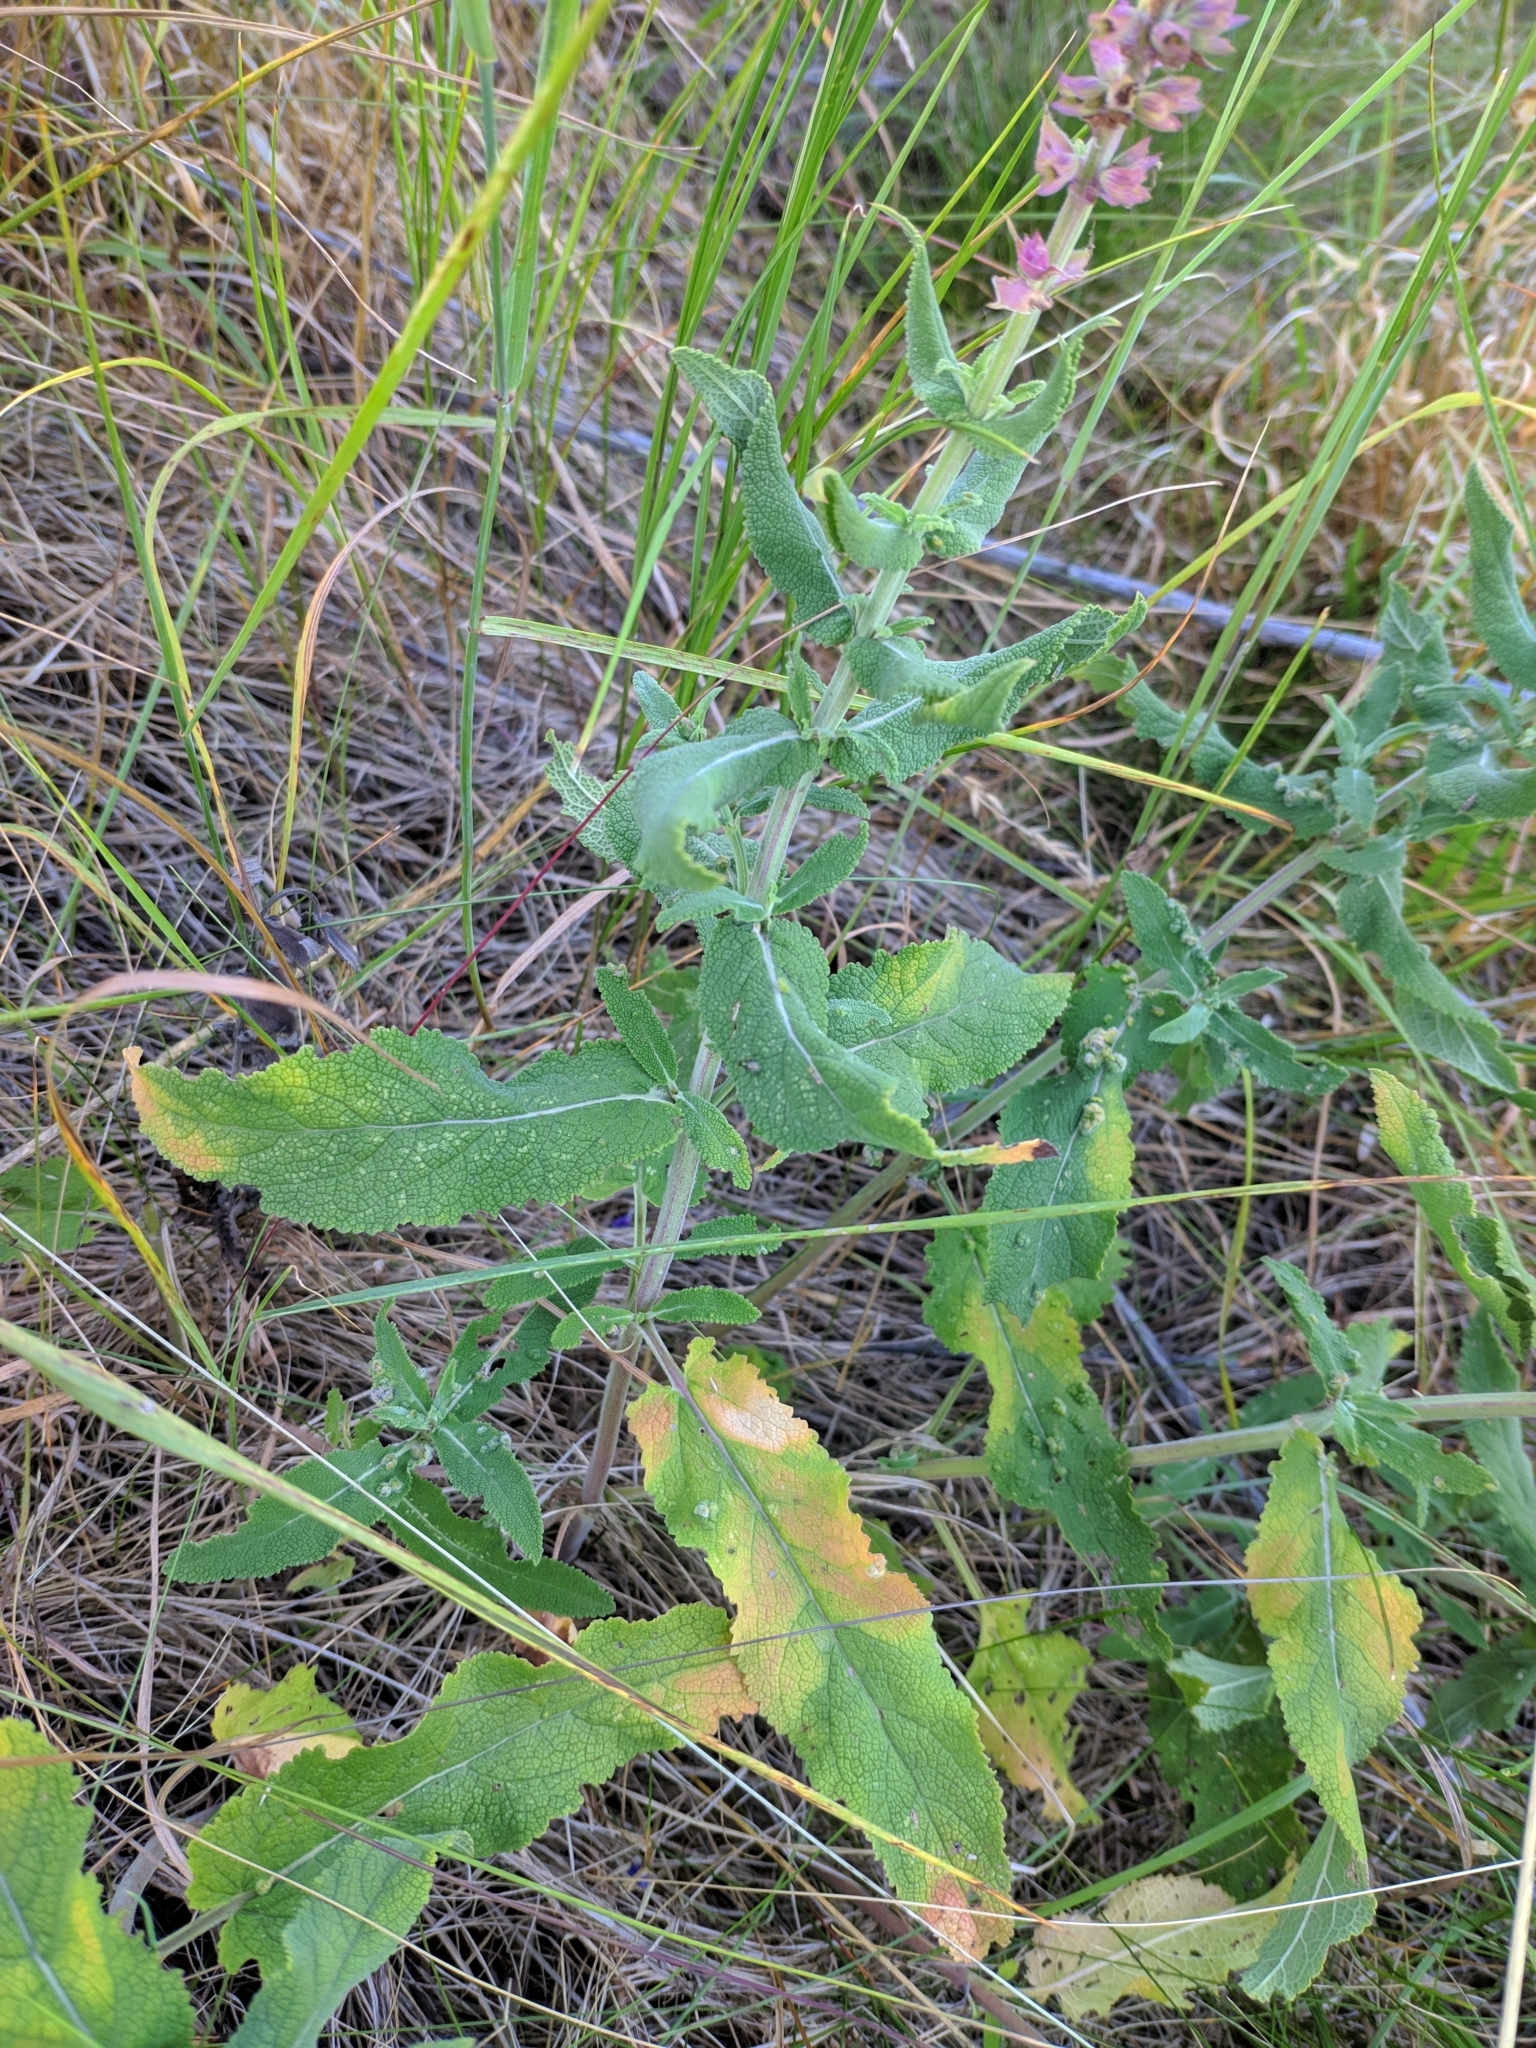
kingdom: Plantae
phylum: Tracheophyta
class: Magnoliopsida
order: Lamiales
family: Lamiaceae
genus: Salvia
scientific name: Salvia nemorosa
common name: Balkan clary
